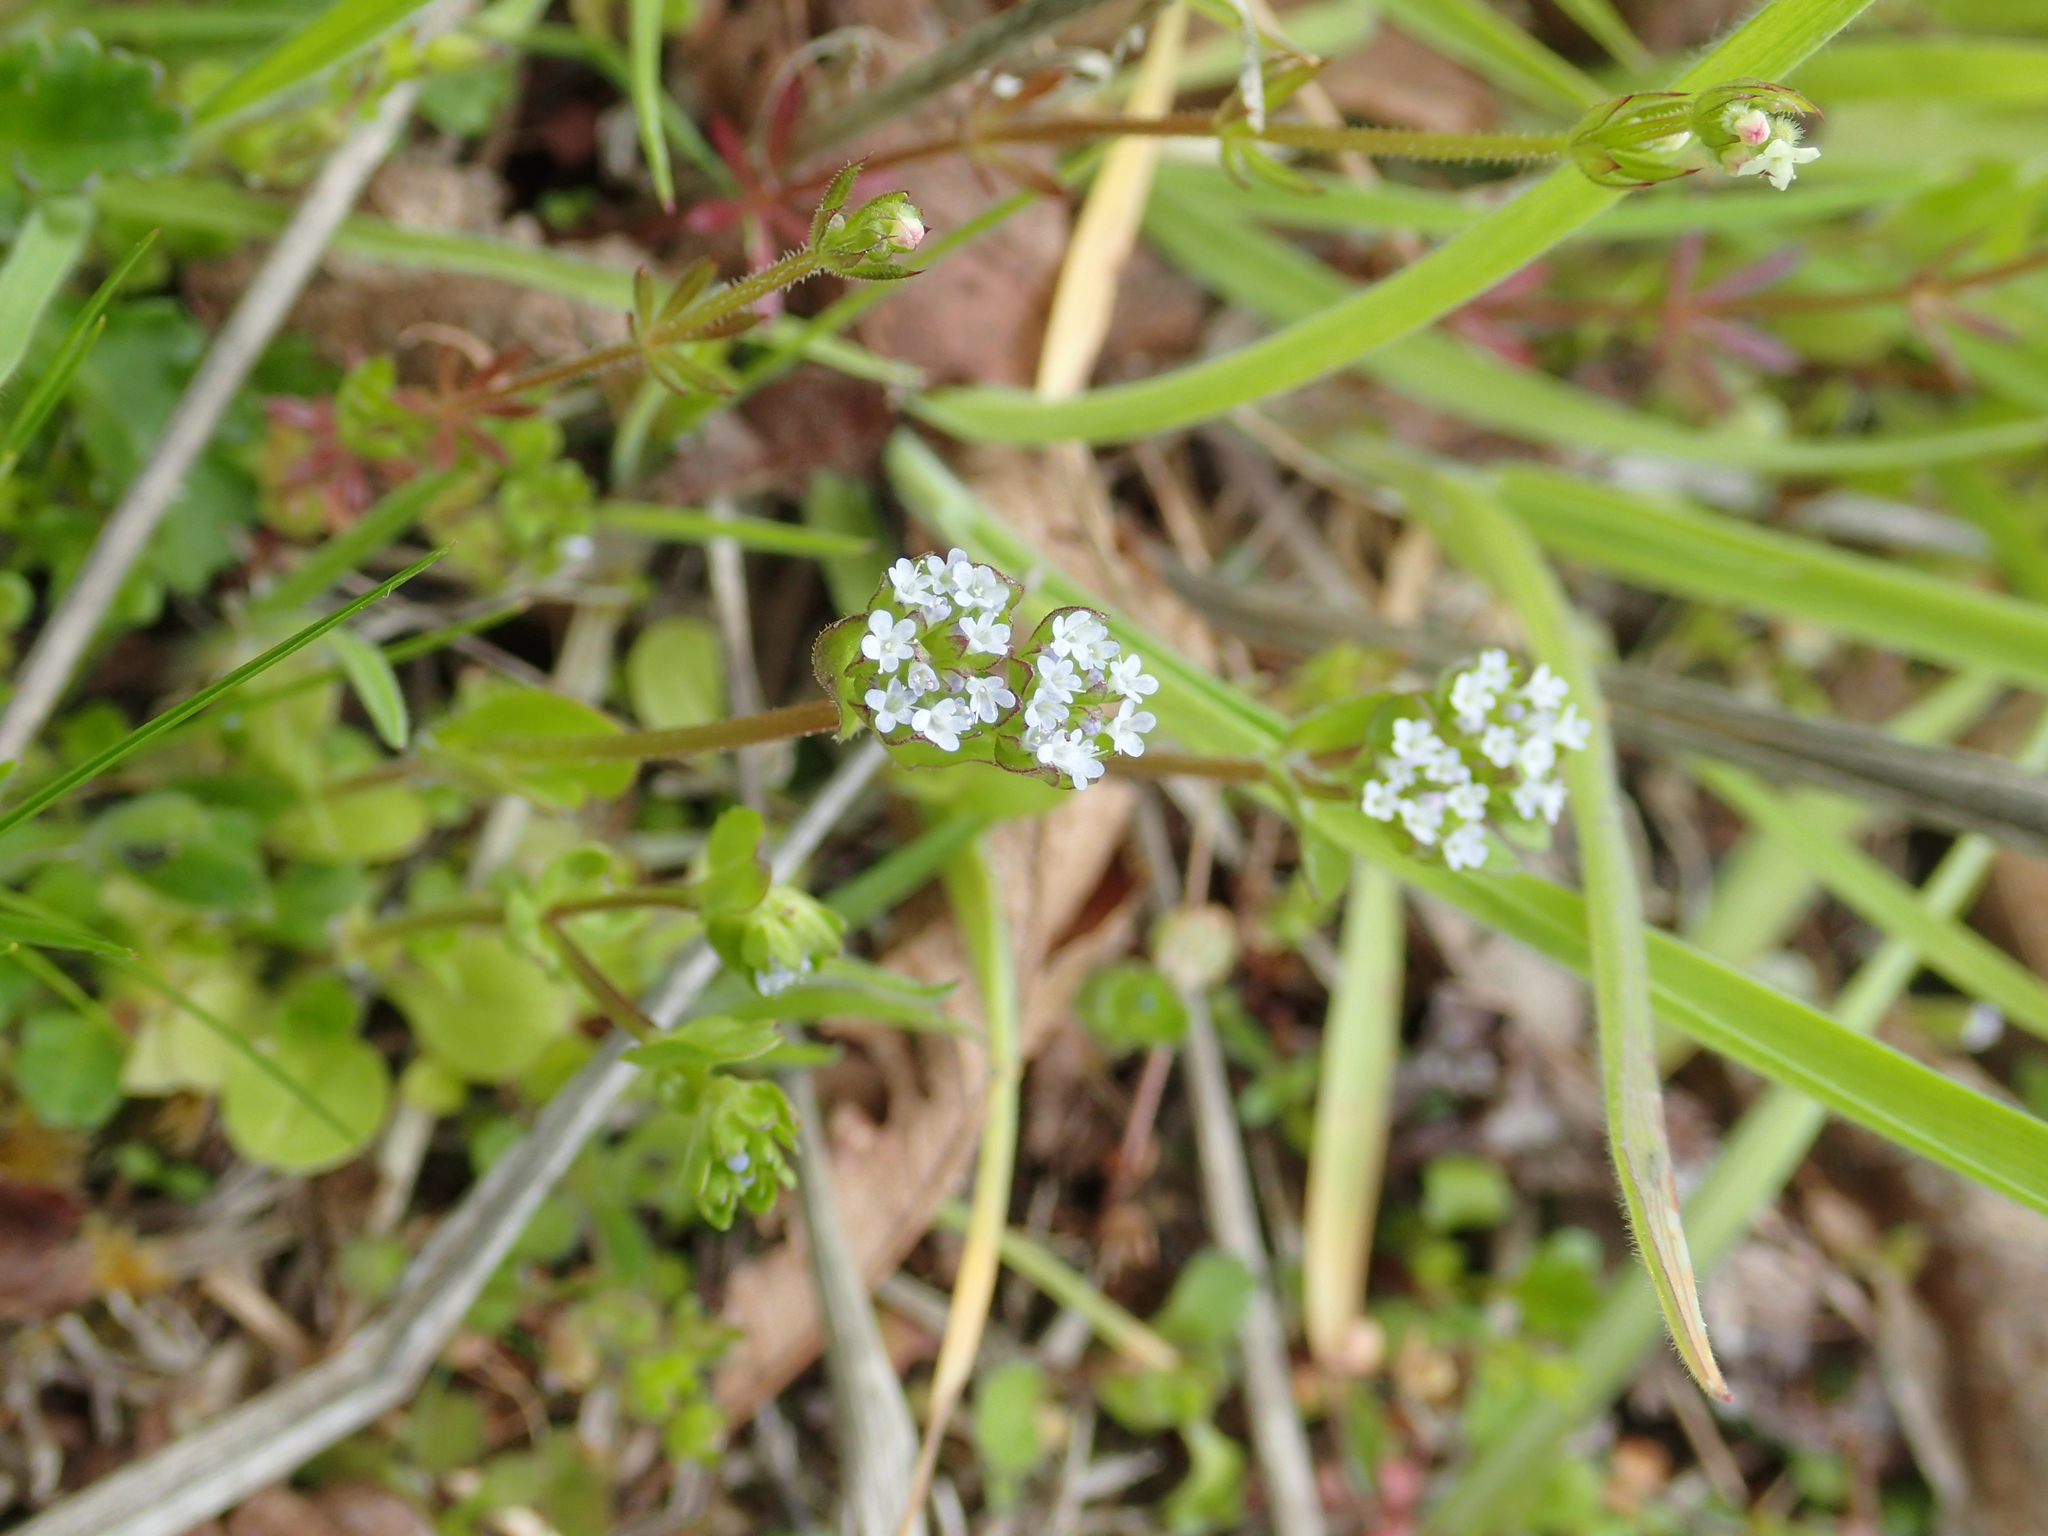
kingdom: Plantae
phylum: Tracheophyta
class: Magnoliopsida
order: Dipsacales
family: Caprifoliaceae
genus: Valerianella
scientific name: Valerianella locusta
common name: Common cornsalad
